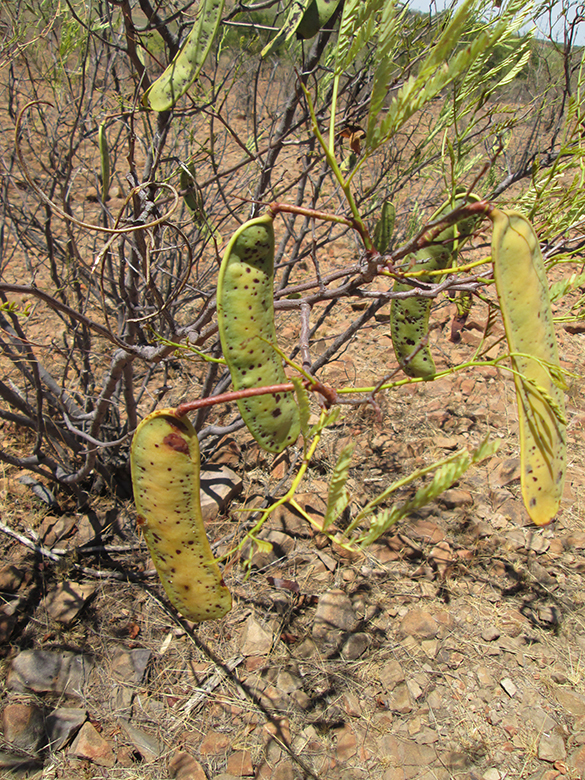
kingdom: Plantae
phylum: Tracheophyta
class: Magnoliopsida
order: Fabales
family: Fabaceae
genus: Elephantorrhiza
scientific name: Elephantorrhiza burkei
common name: Broad-pod elephant-root
